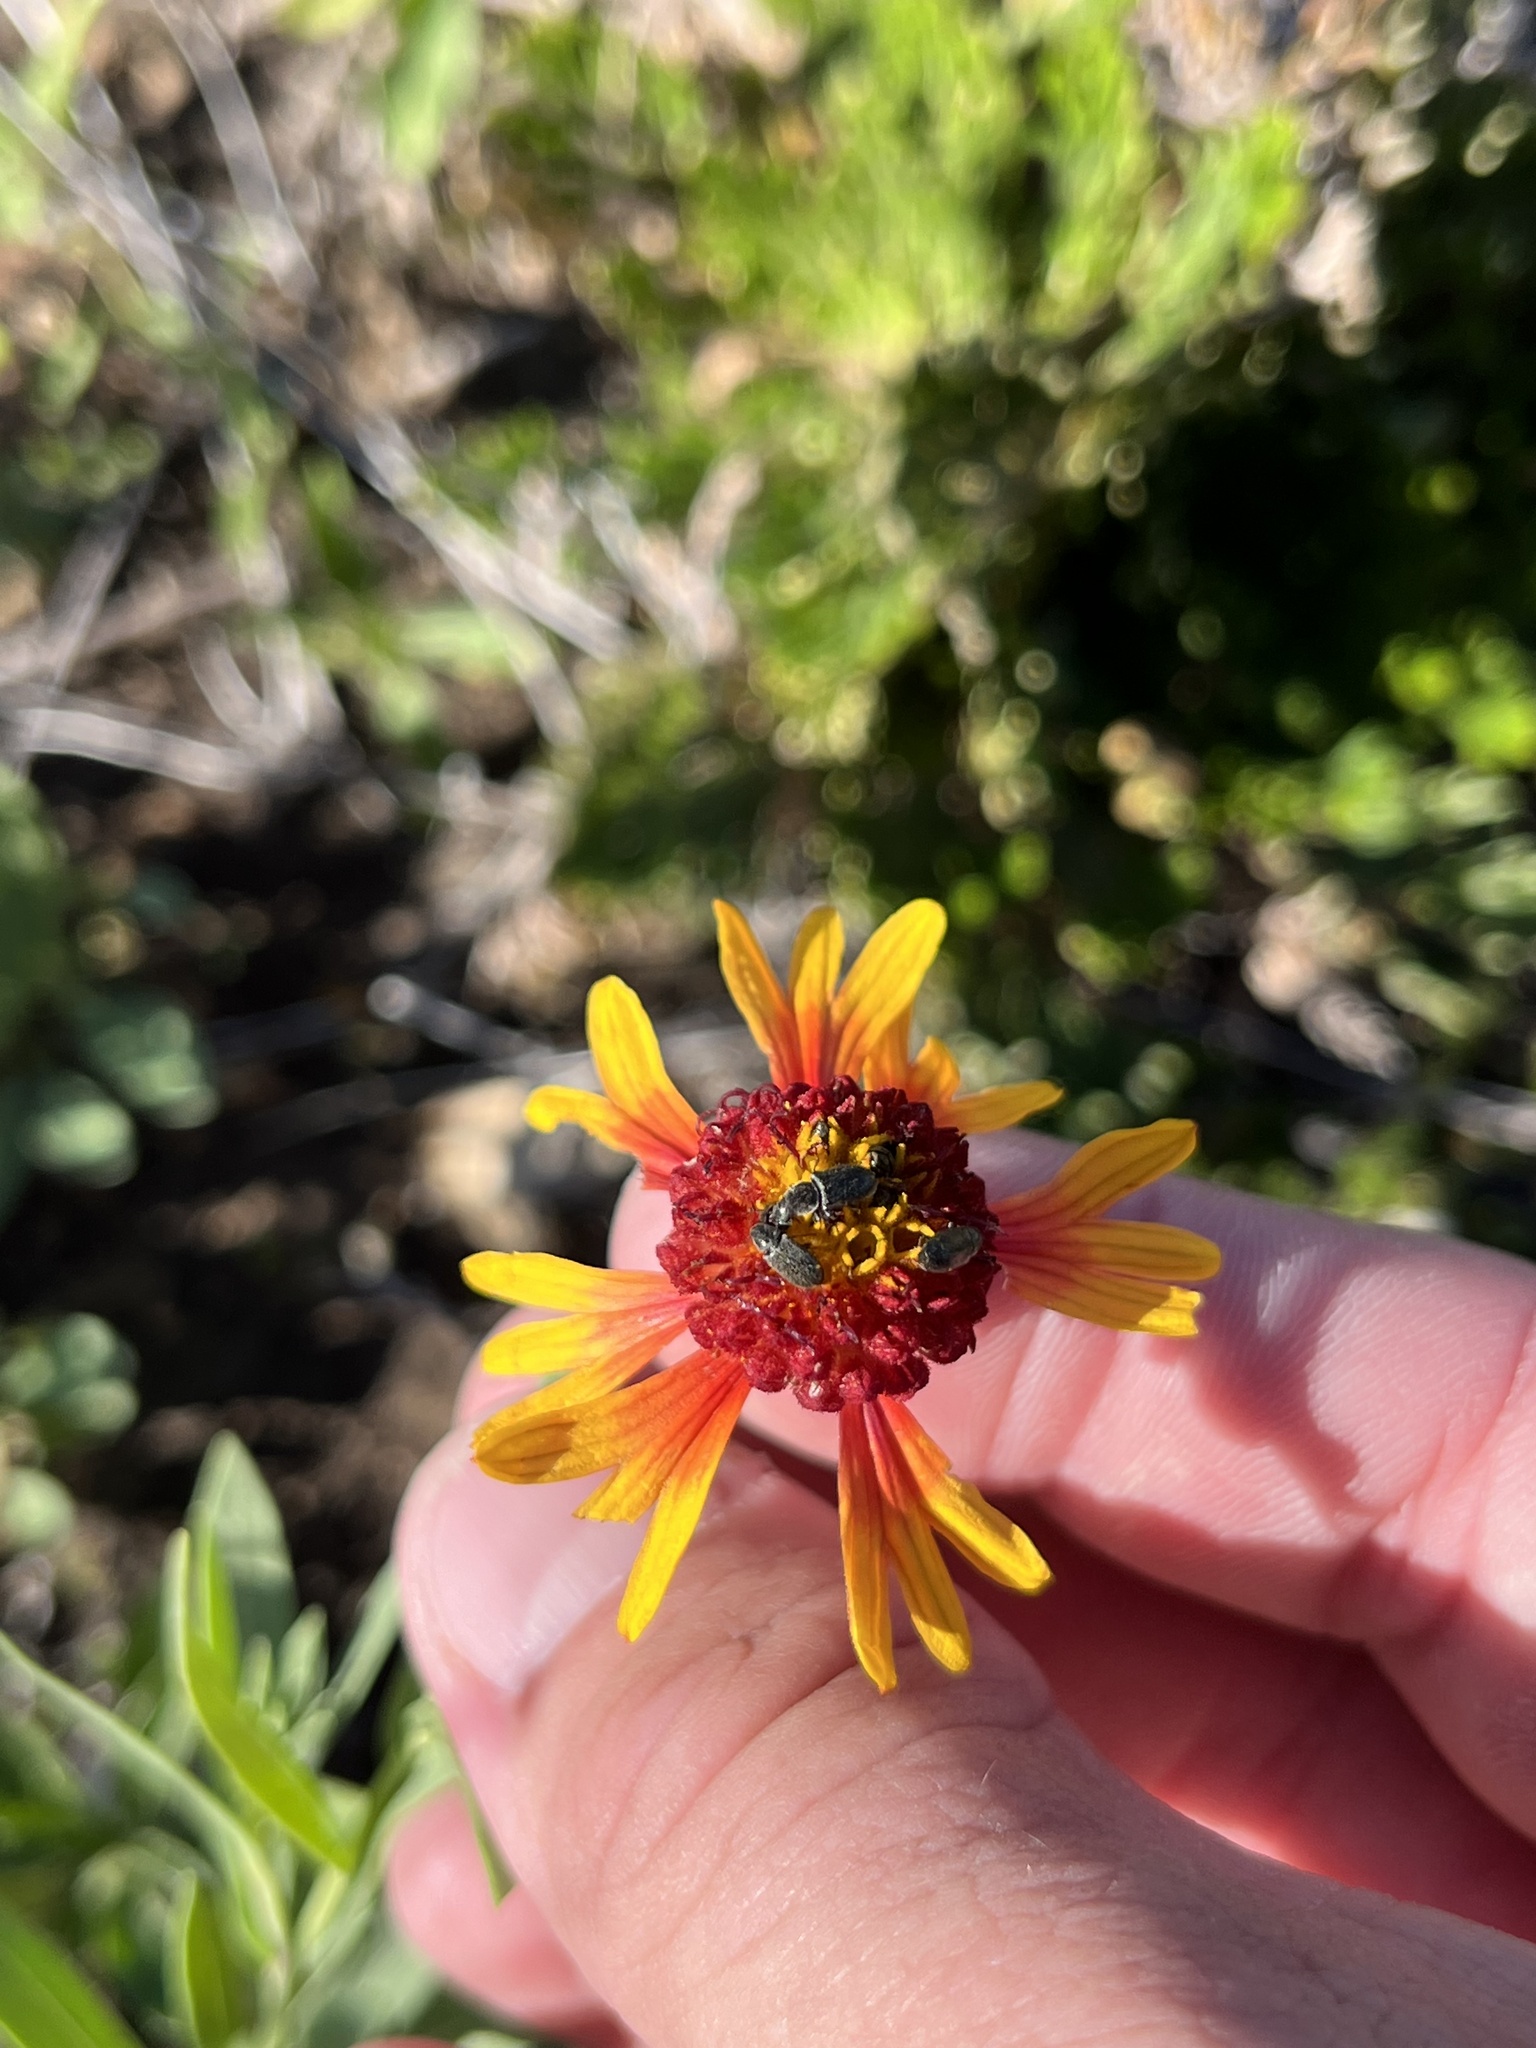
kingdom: Plantae
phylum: Tracheophyta
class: Magnoliopsida
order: Asterales
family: Asteraceae
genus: Gaillardia
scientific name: Gaillardia pulchella
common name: Firewheel
